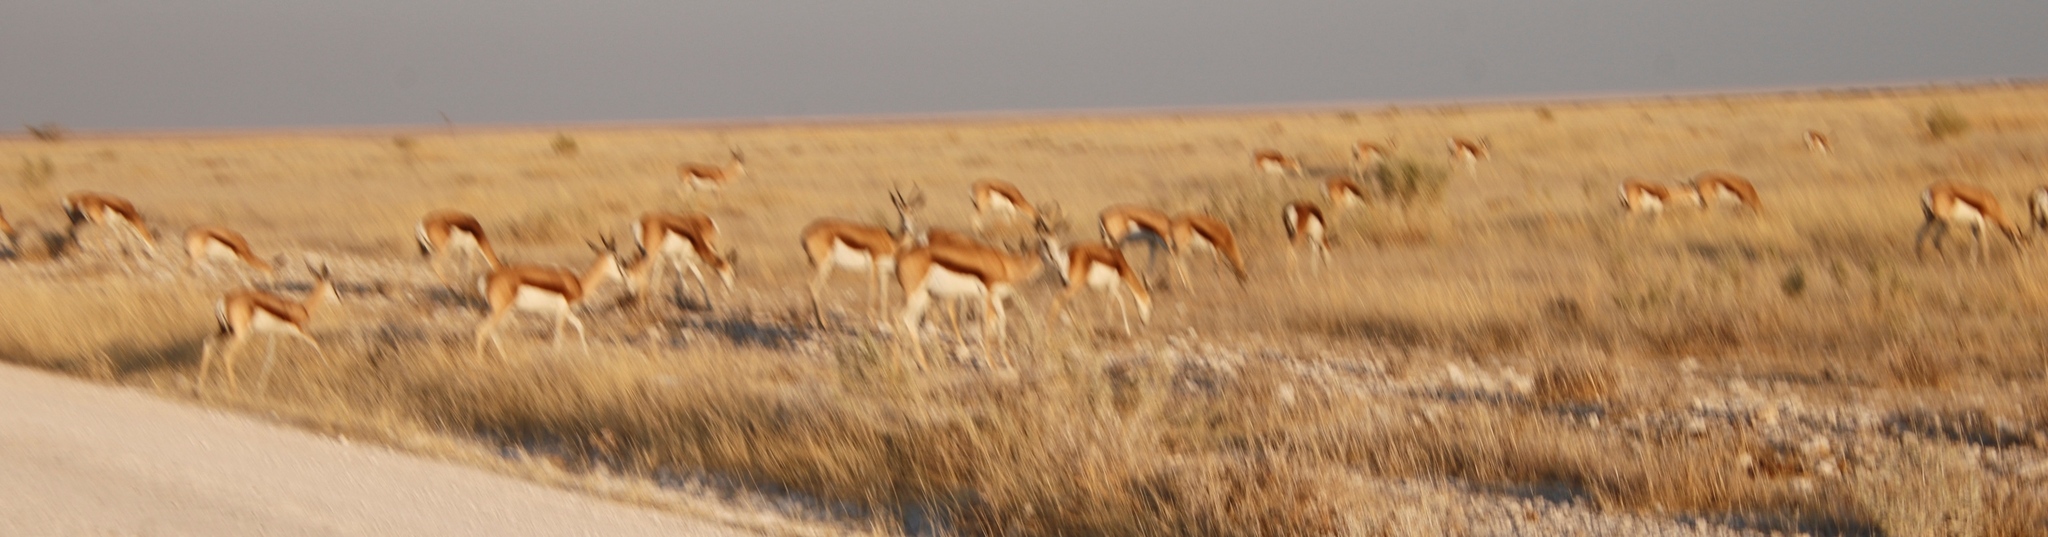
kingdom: Animalia
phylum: Chordata
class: Mammalia
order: Artiodactyla
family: Bovidae
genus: Antidorcas
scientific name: Antidorcas marsupialis
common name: Springbok
